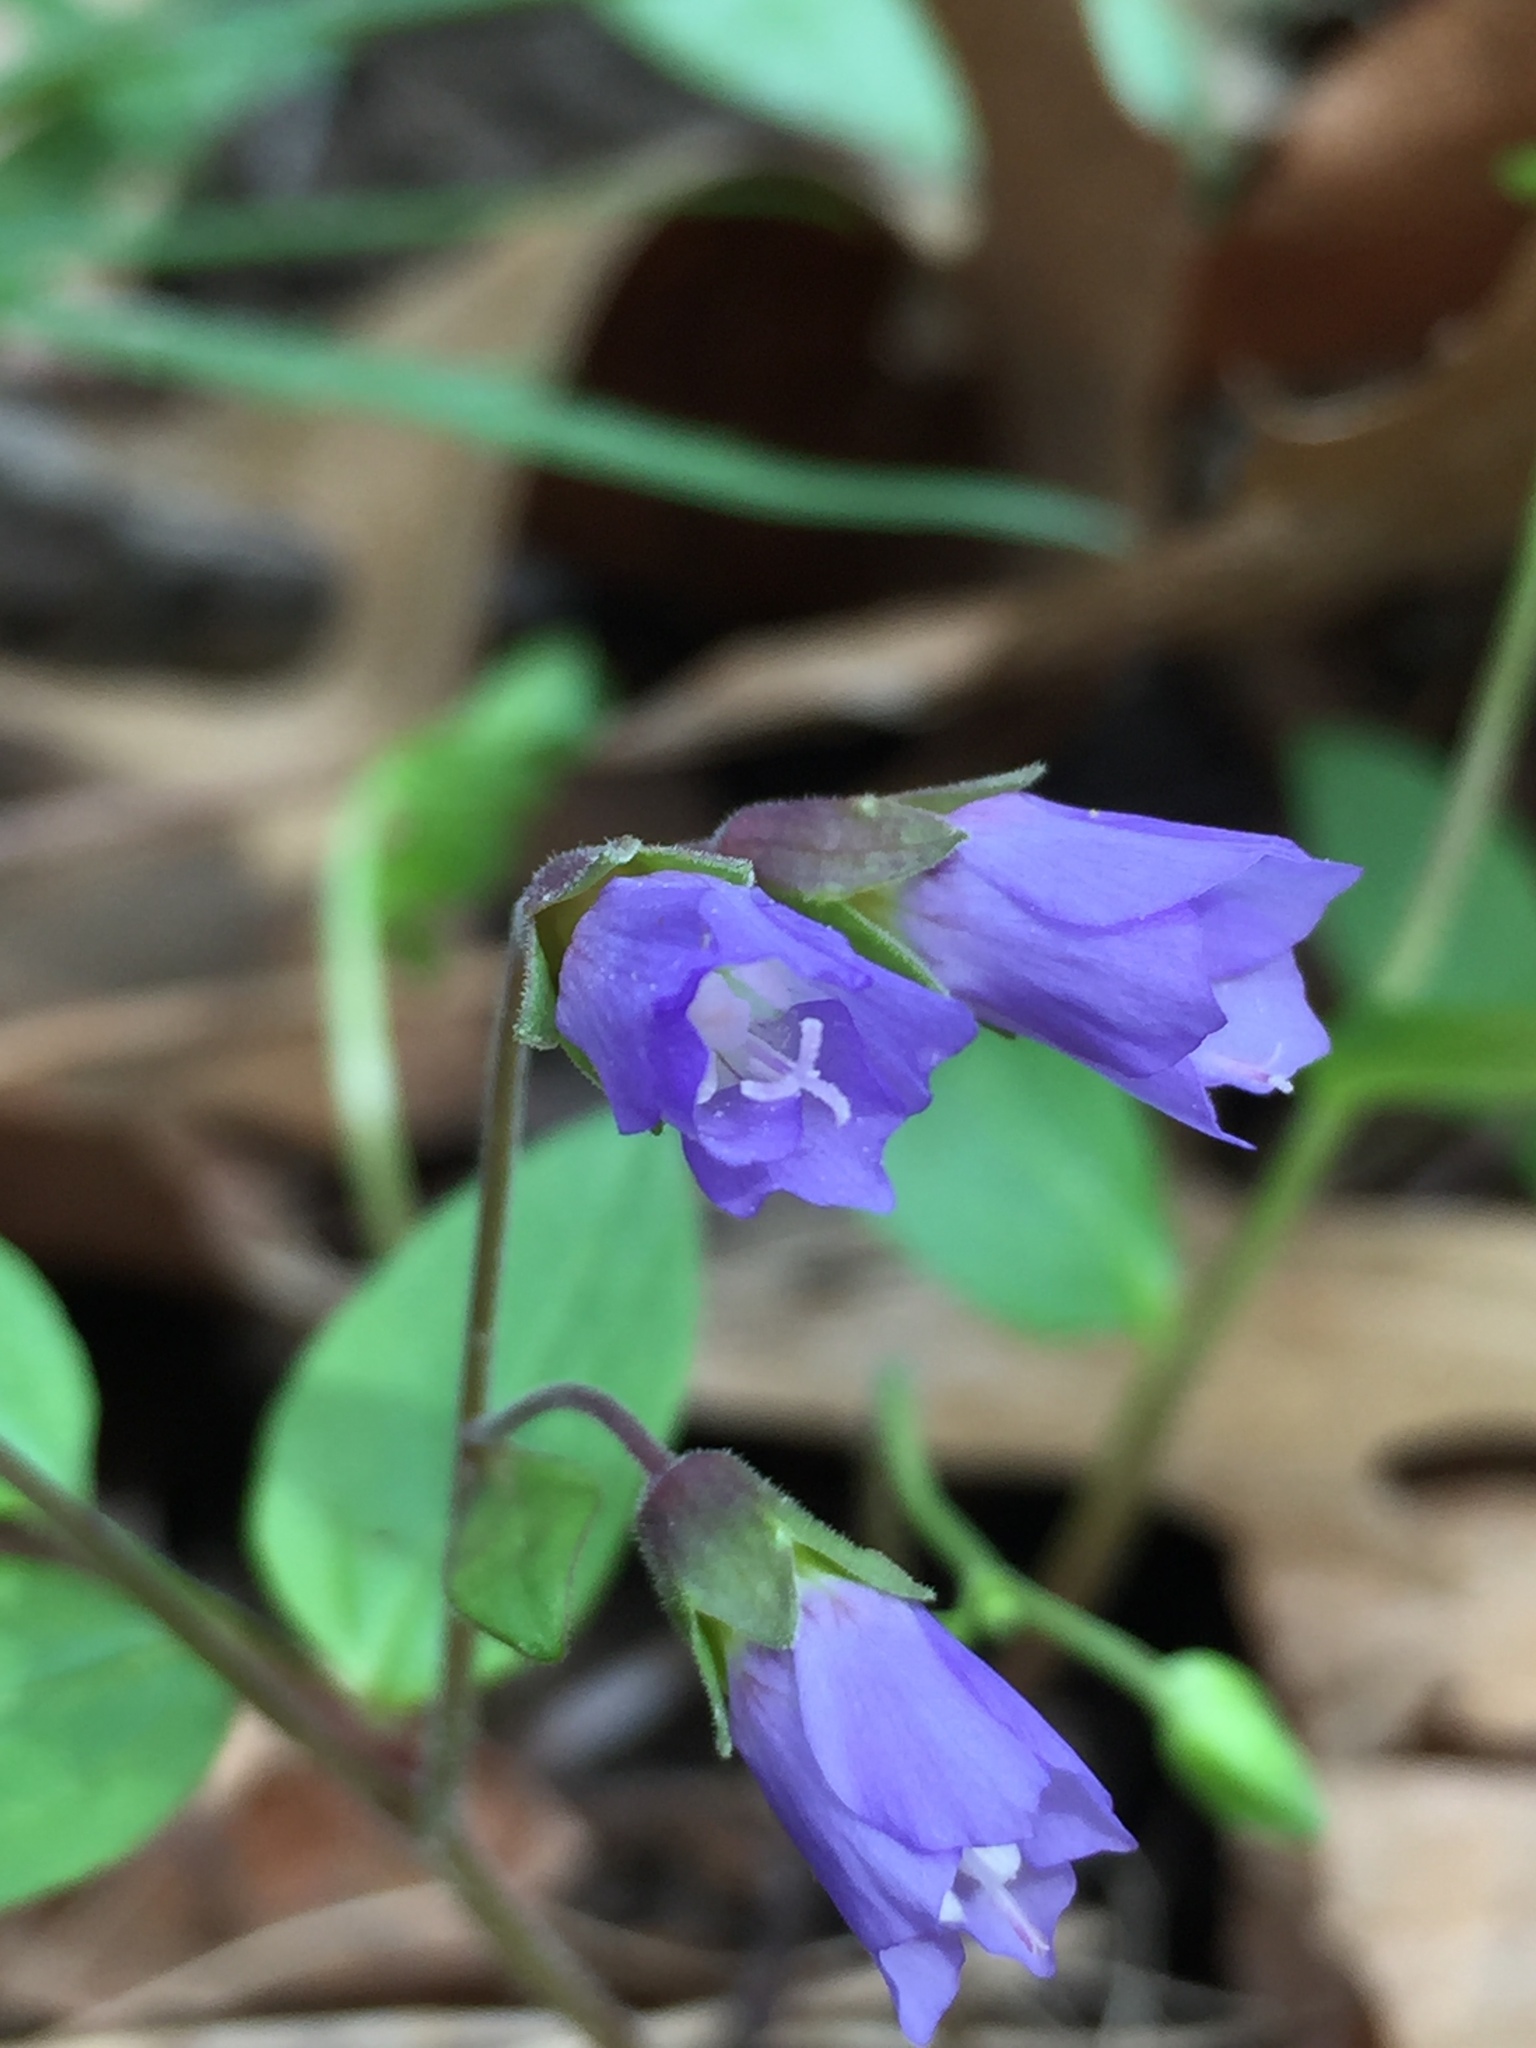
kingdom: Plantae
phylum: Tracheophyta
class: Magnoliopsida
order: Ericales
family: Polemoniaceae
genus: Polemonium
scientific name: Polemonium reptans
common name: Creeping jacob's-ladder
